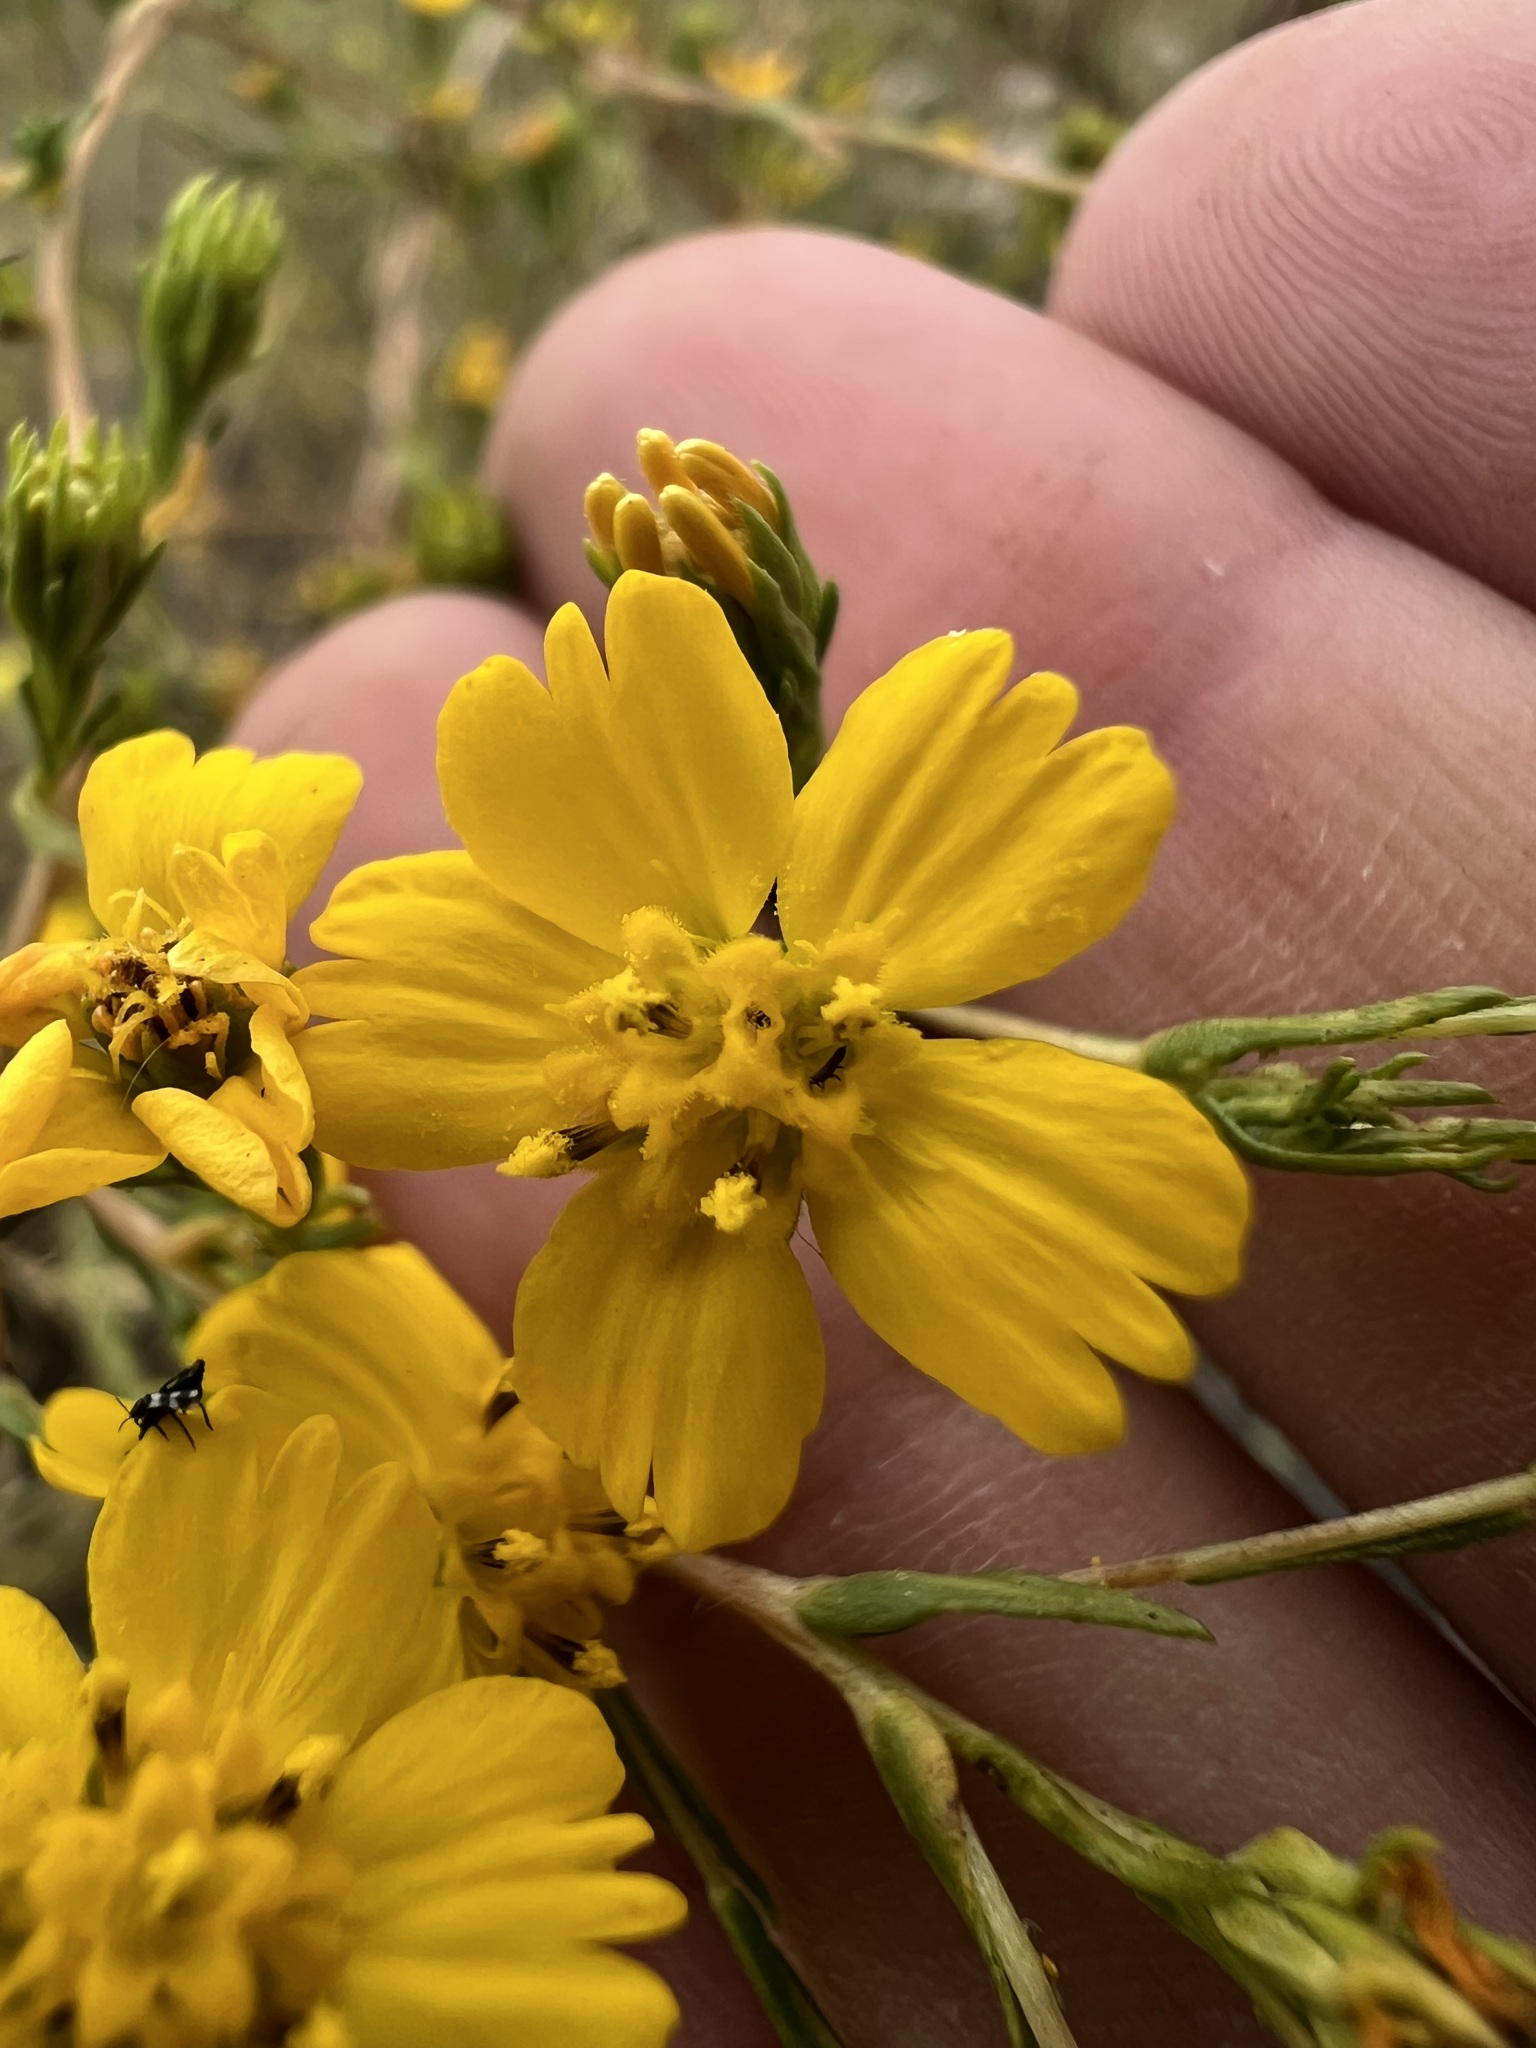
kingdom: Plantae
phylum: Tracheophyta
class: Magnoliopsida
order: Asterales
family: Asteraceae
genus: Deinandra
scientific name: Deinandra fasciculata
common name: Clustered tarweed
